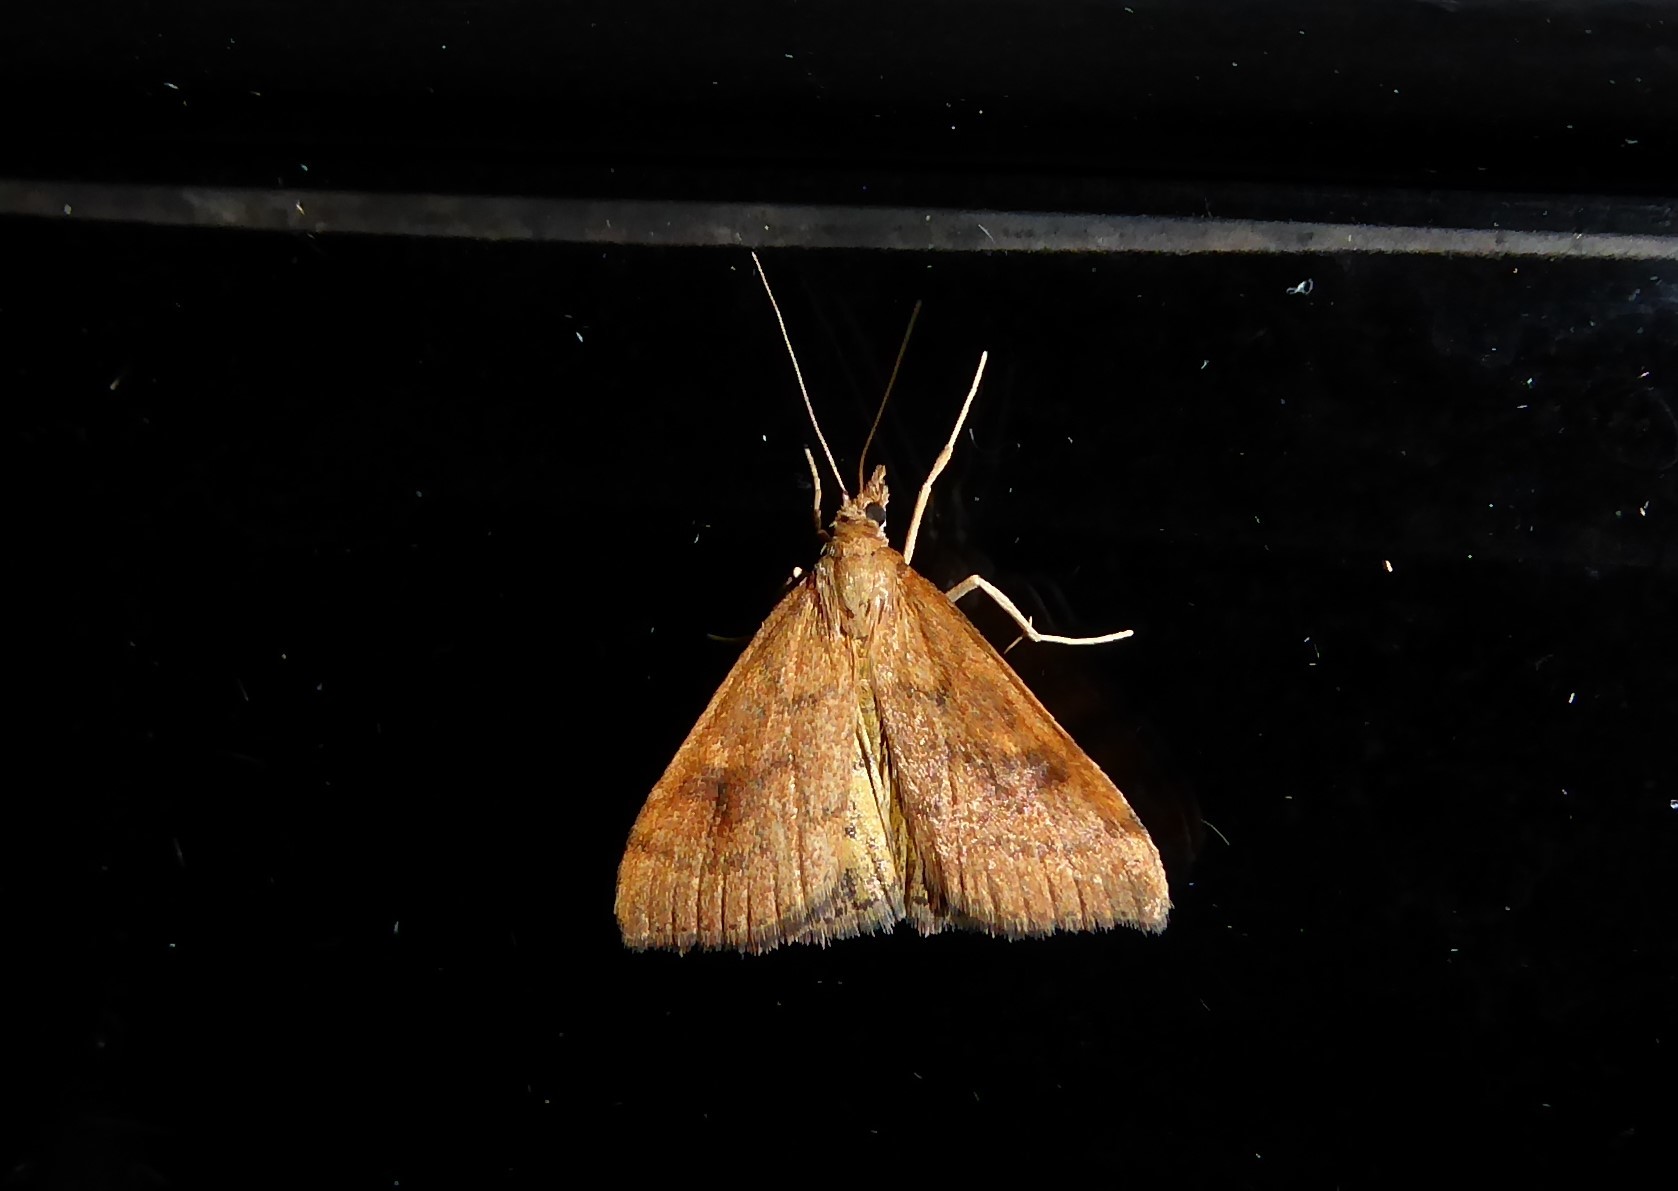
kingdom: Animalia
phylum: Arthropoda
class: Insecta
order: Lepidoptera
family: Crambidae
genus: Udea
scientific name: Udea Mnesictena flavidalis
